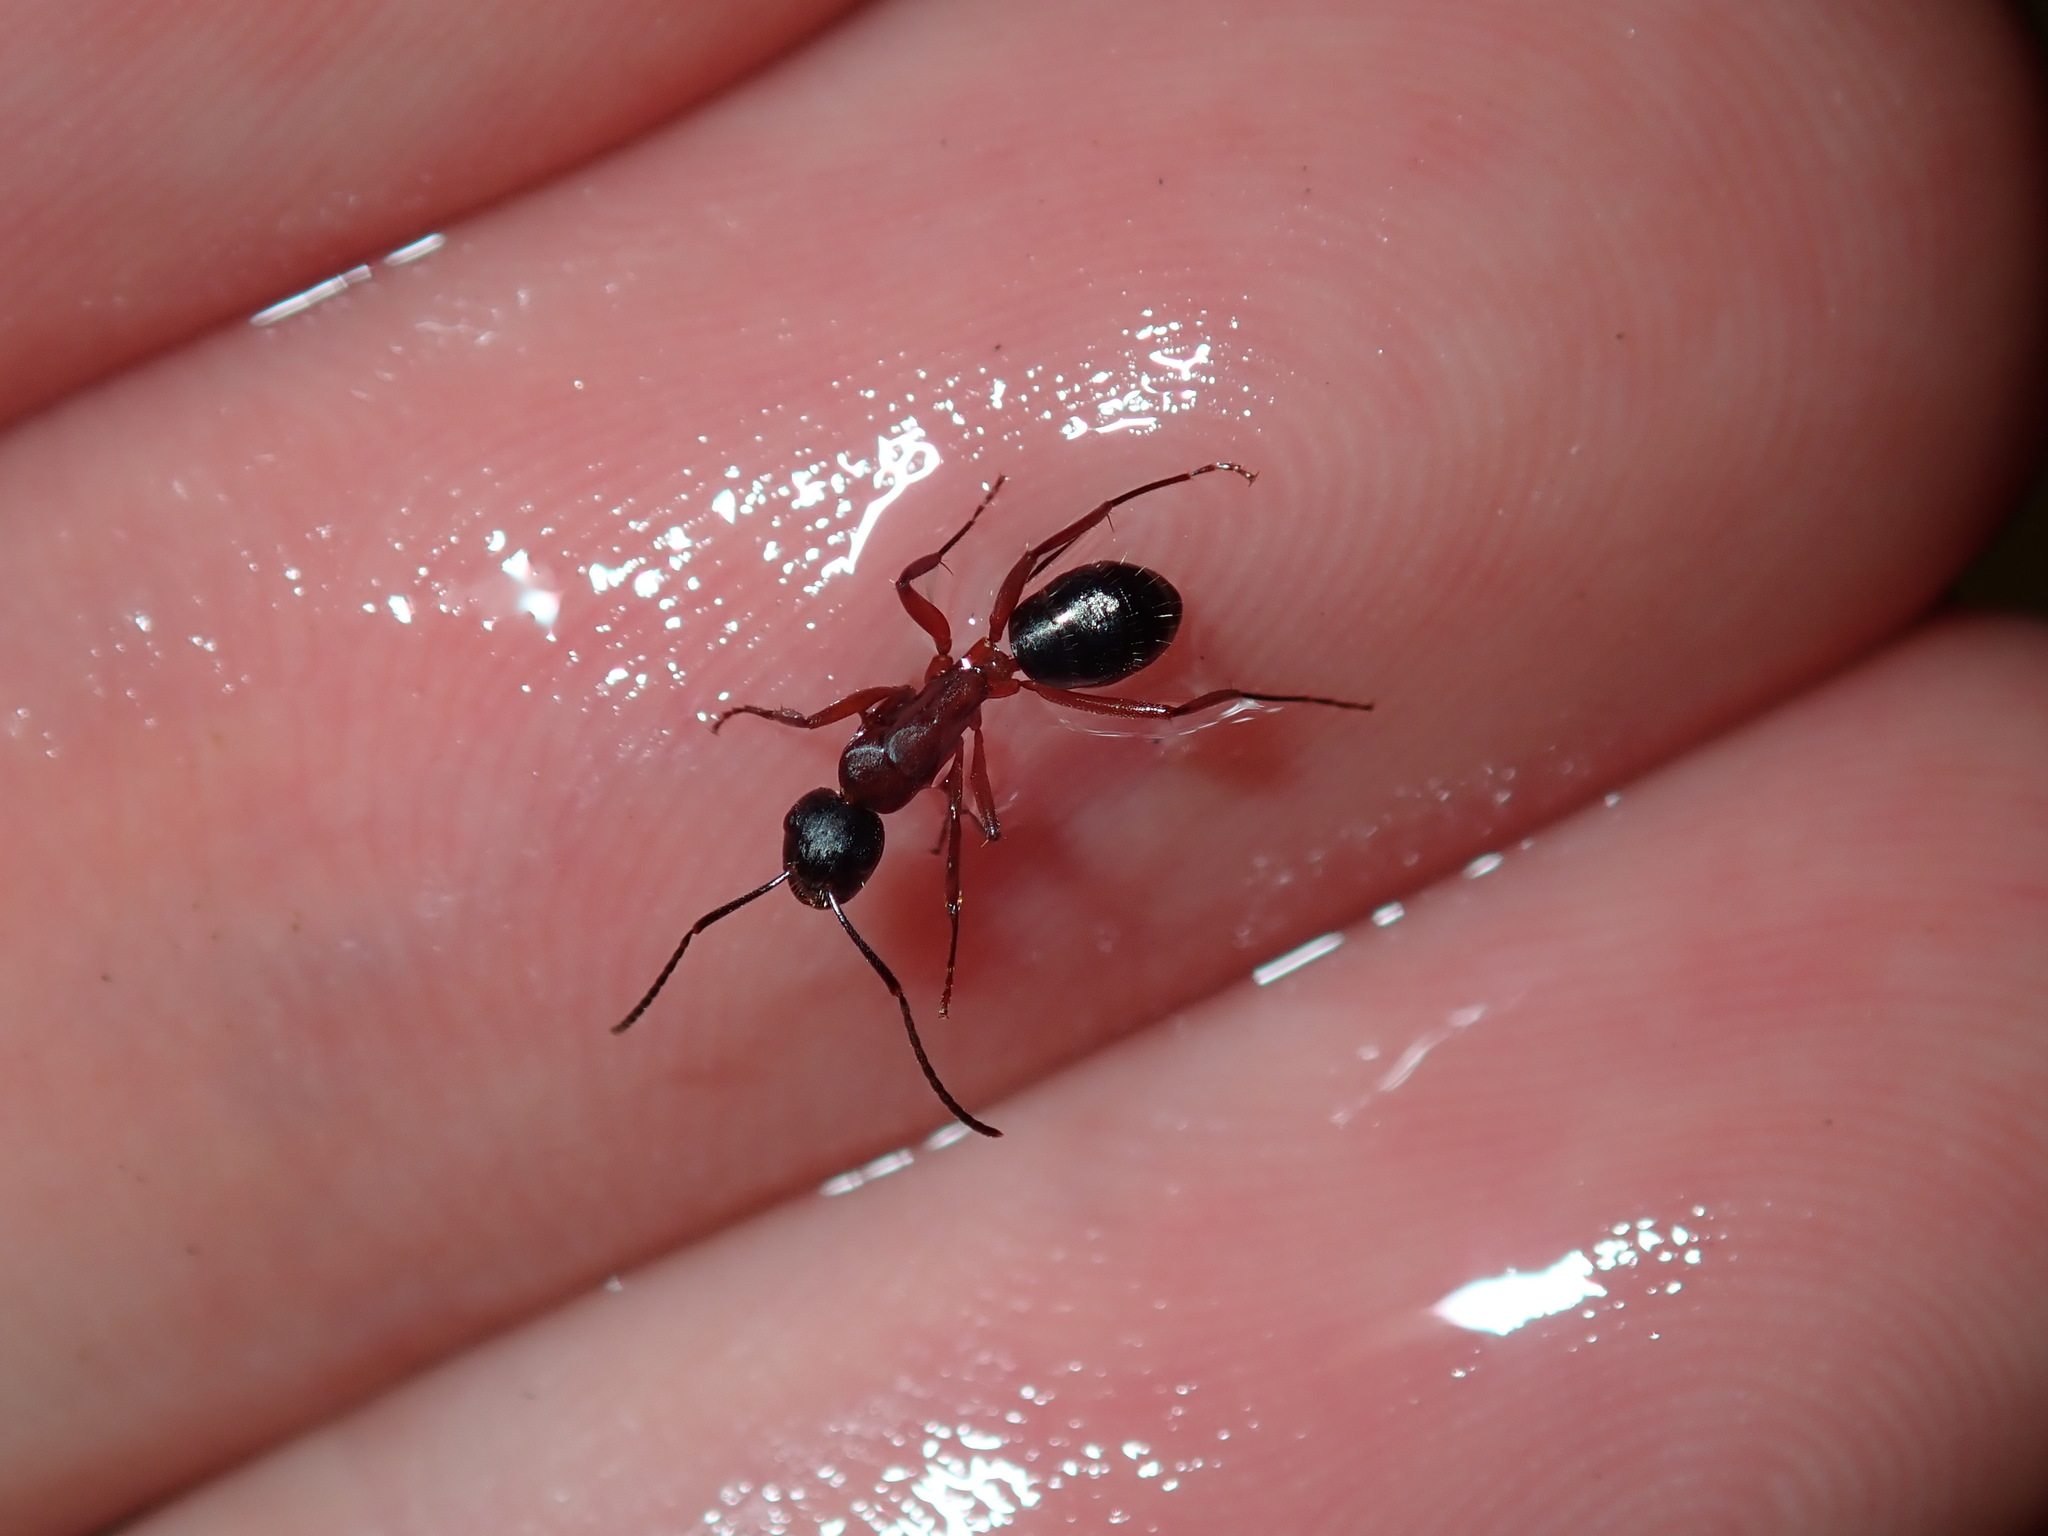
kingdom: Animalia
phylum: Arthropoda
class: Insecta
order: Hymenoptera
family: Formicidae
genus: Camponotus
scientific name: Camponotus innexus
